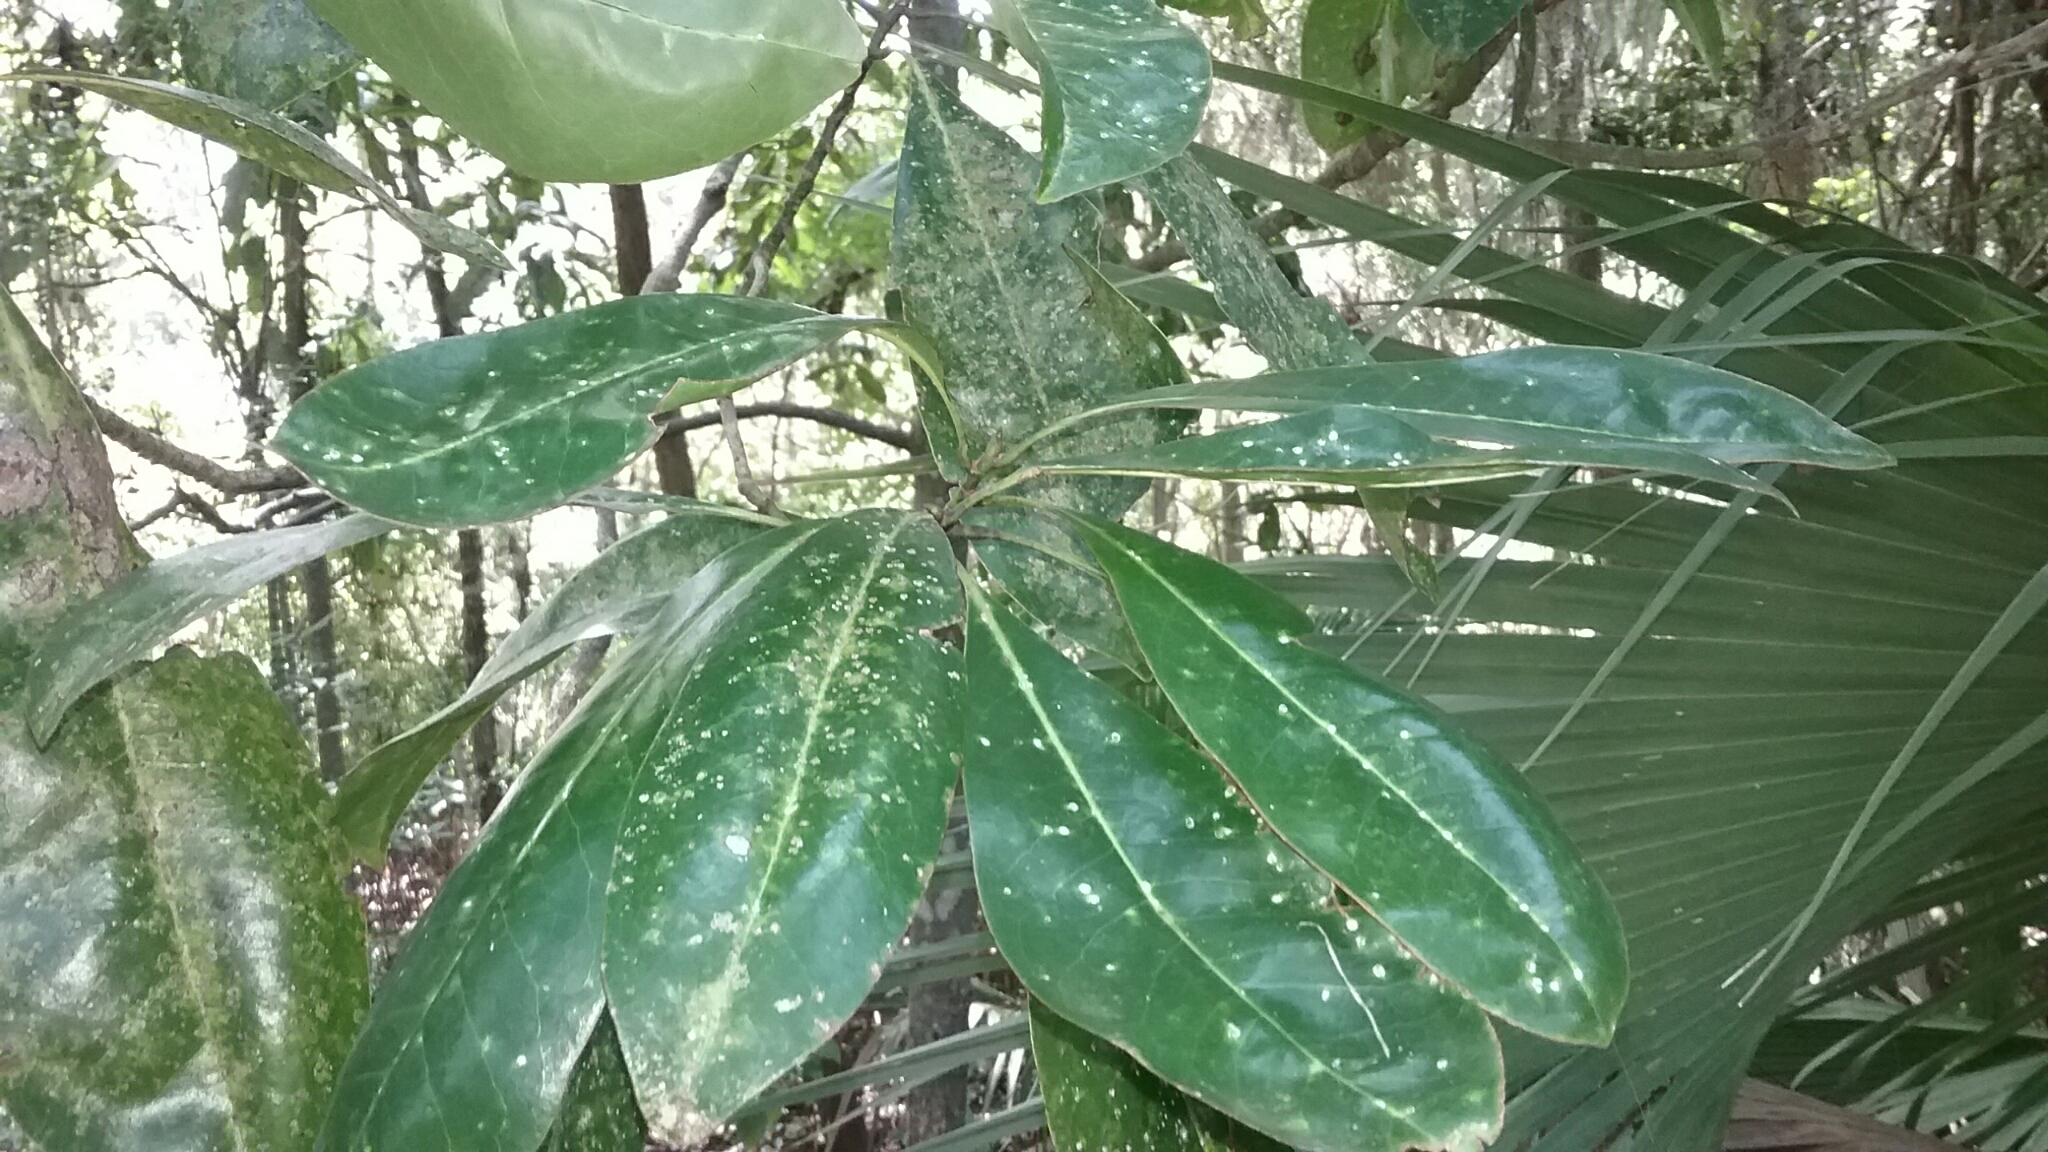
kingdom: Plantae
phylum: Tracheophyta
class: Magnoliopsida
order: Magnoliales
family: Magnoliaceae
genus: Magnolia
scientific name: Magnolia grandiflora
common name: Southern magnolia
